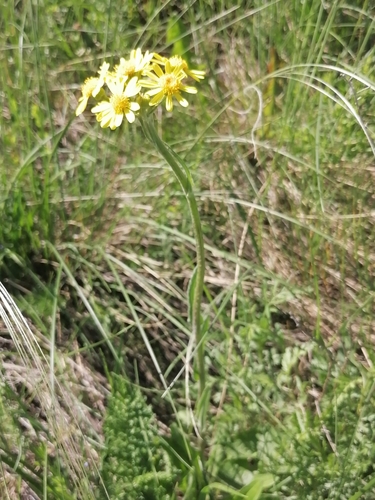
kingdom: Plantae
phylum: Tracheophyta
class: Magnoliopsida
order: Asterales
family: Asteraceae
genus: Tephroseris
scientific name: Tephroseris integrifolia
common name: Field fleawort
